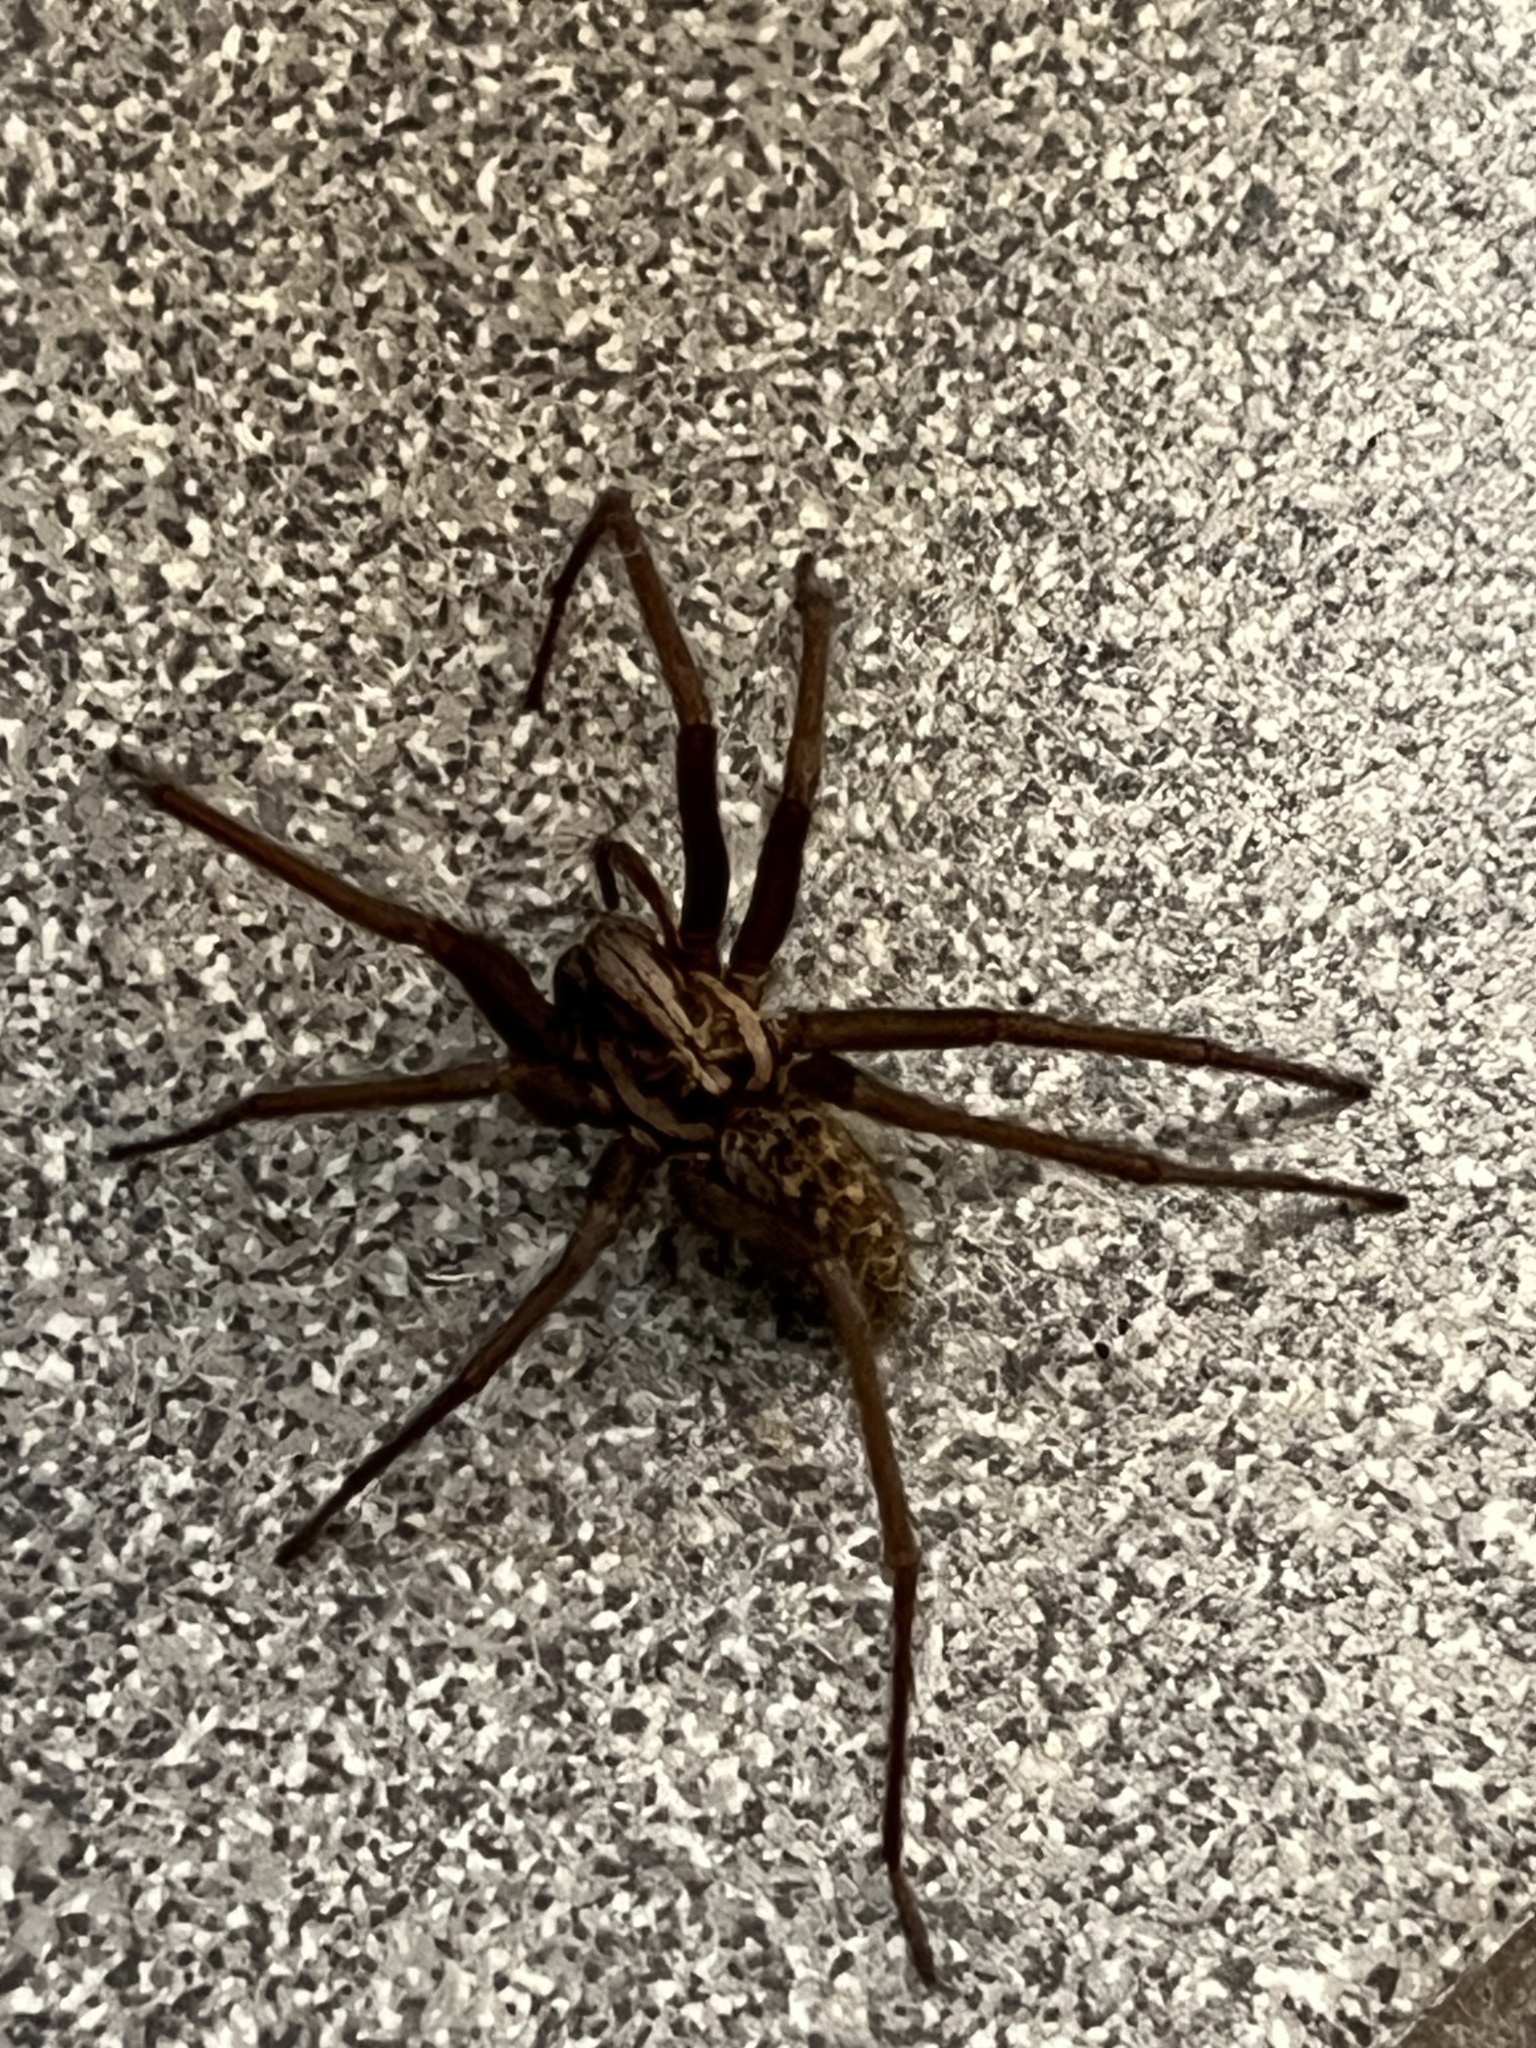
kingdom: Animalia
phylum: Arthropoda
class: Arachnida
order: Araneae
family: Agelenidae
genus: Eratigena
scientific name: Eratigena atrica
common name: Giant house spider
